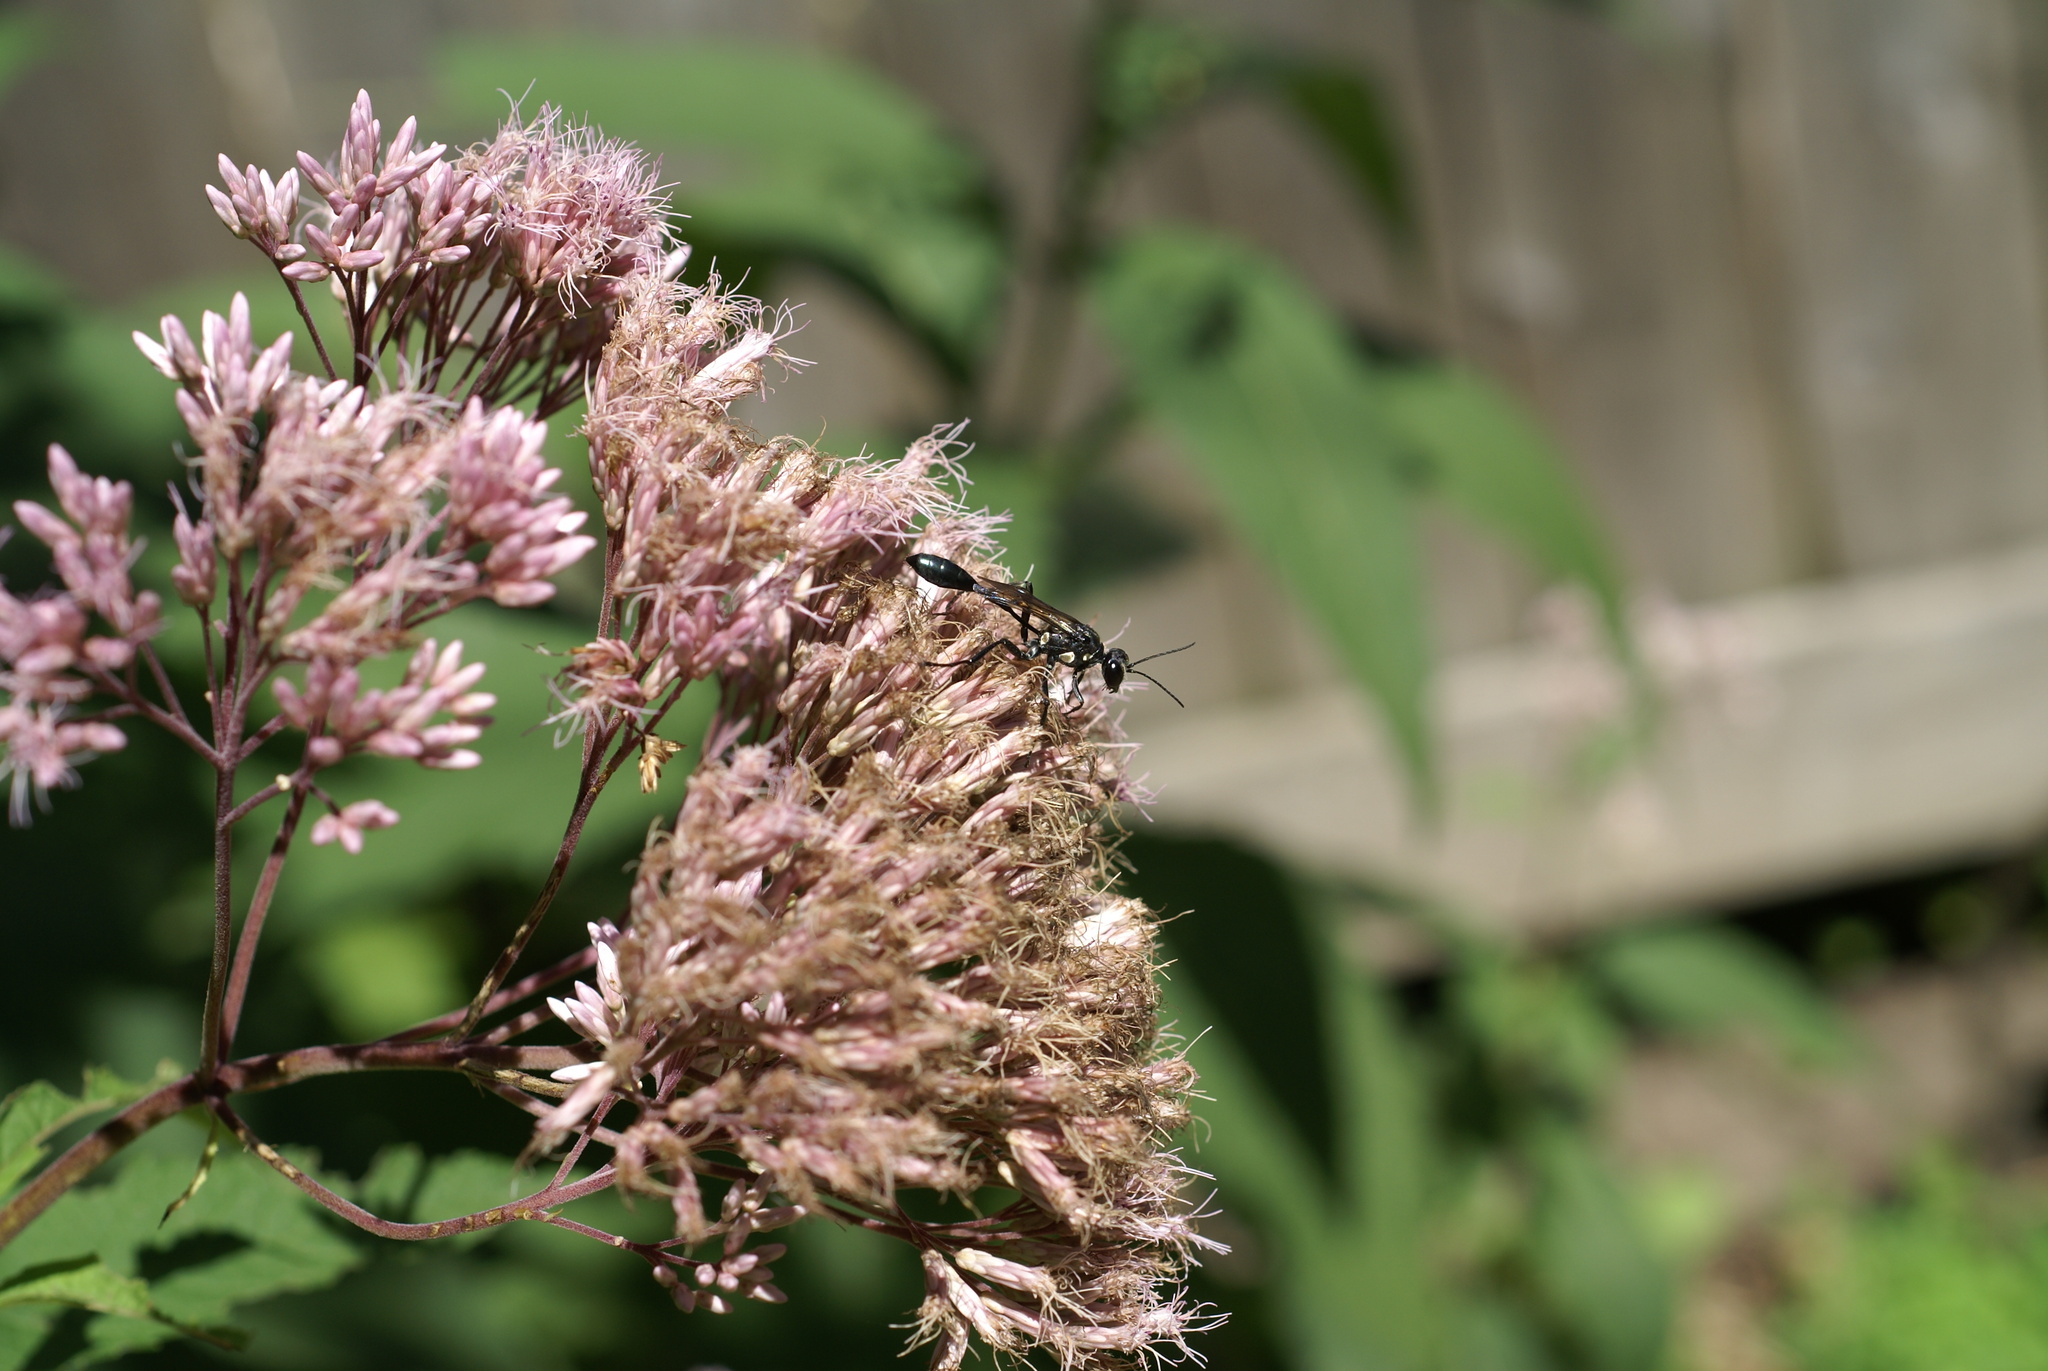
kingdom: Animalia
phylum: Arthropoda
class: Insecta
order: Hymenoptera
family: Sphecidae
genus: Eremnophila
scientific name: Eremnophila aureonotata
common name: Gold-marked thread-waisted wasp
